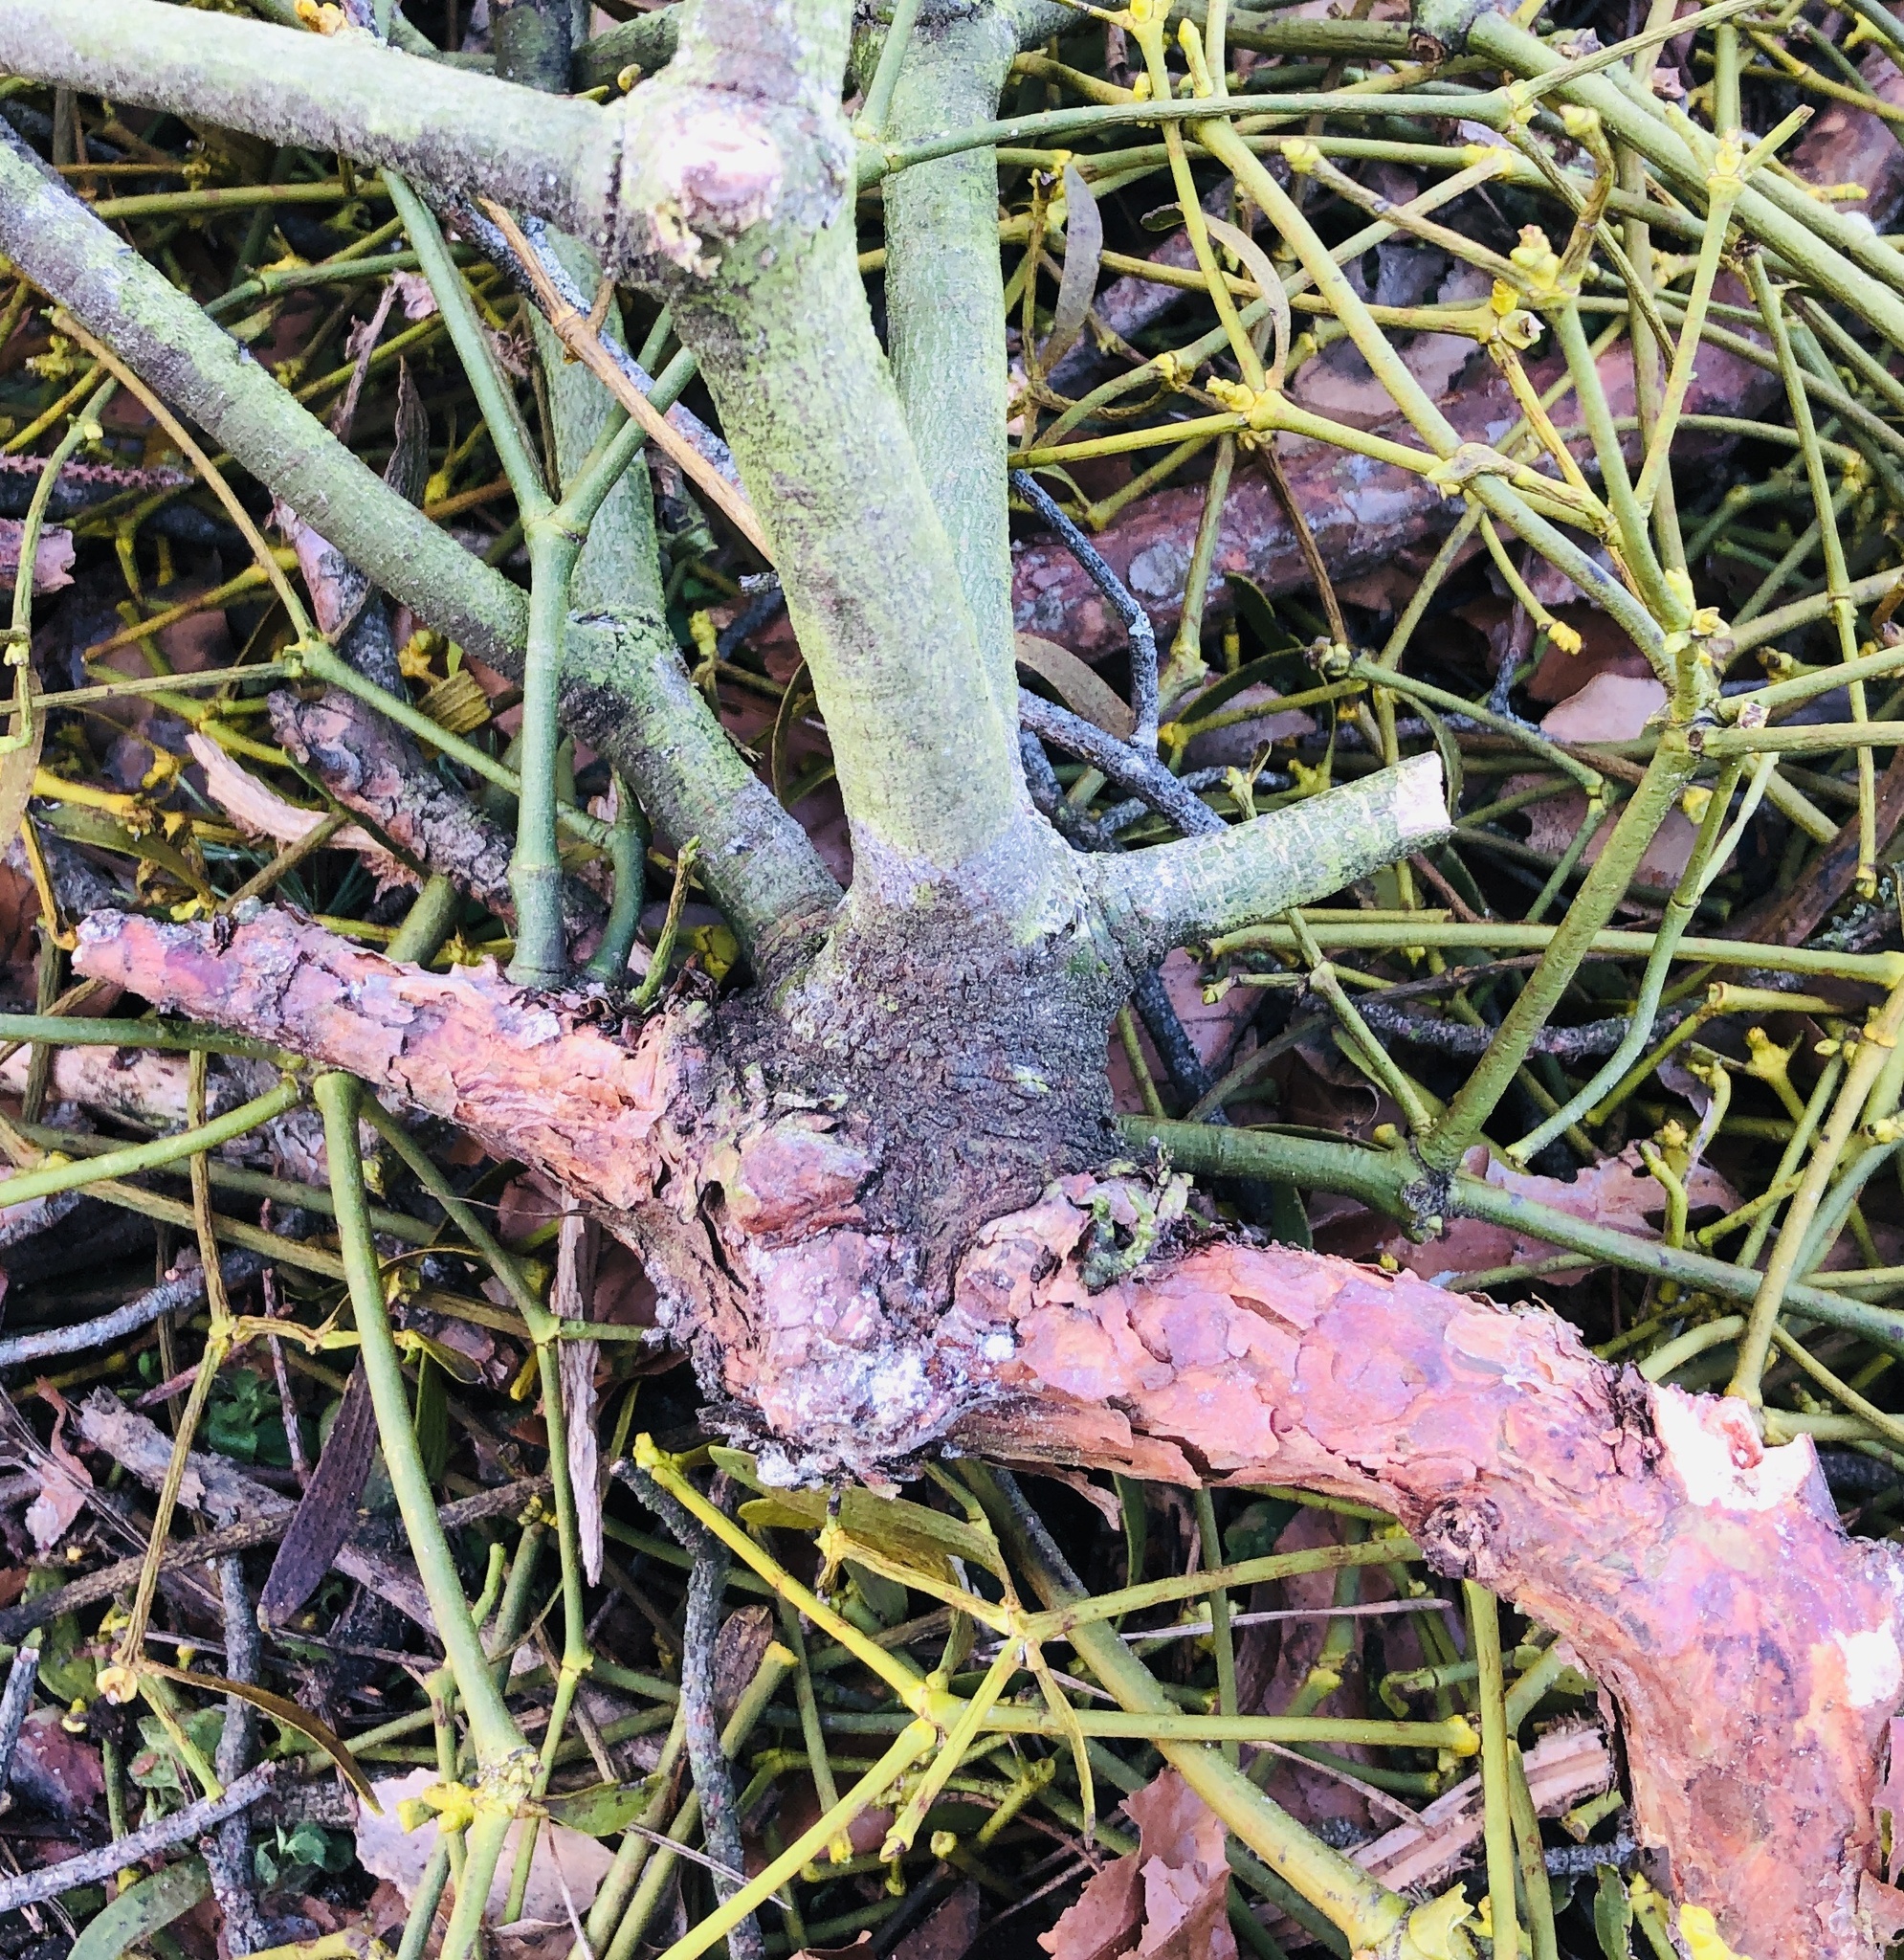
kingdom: Plantae
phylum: Tracheophyta
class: Magnoliopsida
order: Santalales
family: Viscaceae
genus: Viscum
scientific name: Viscum laxum
